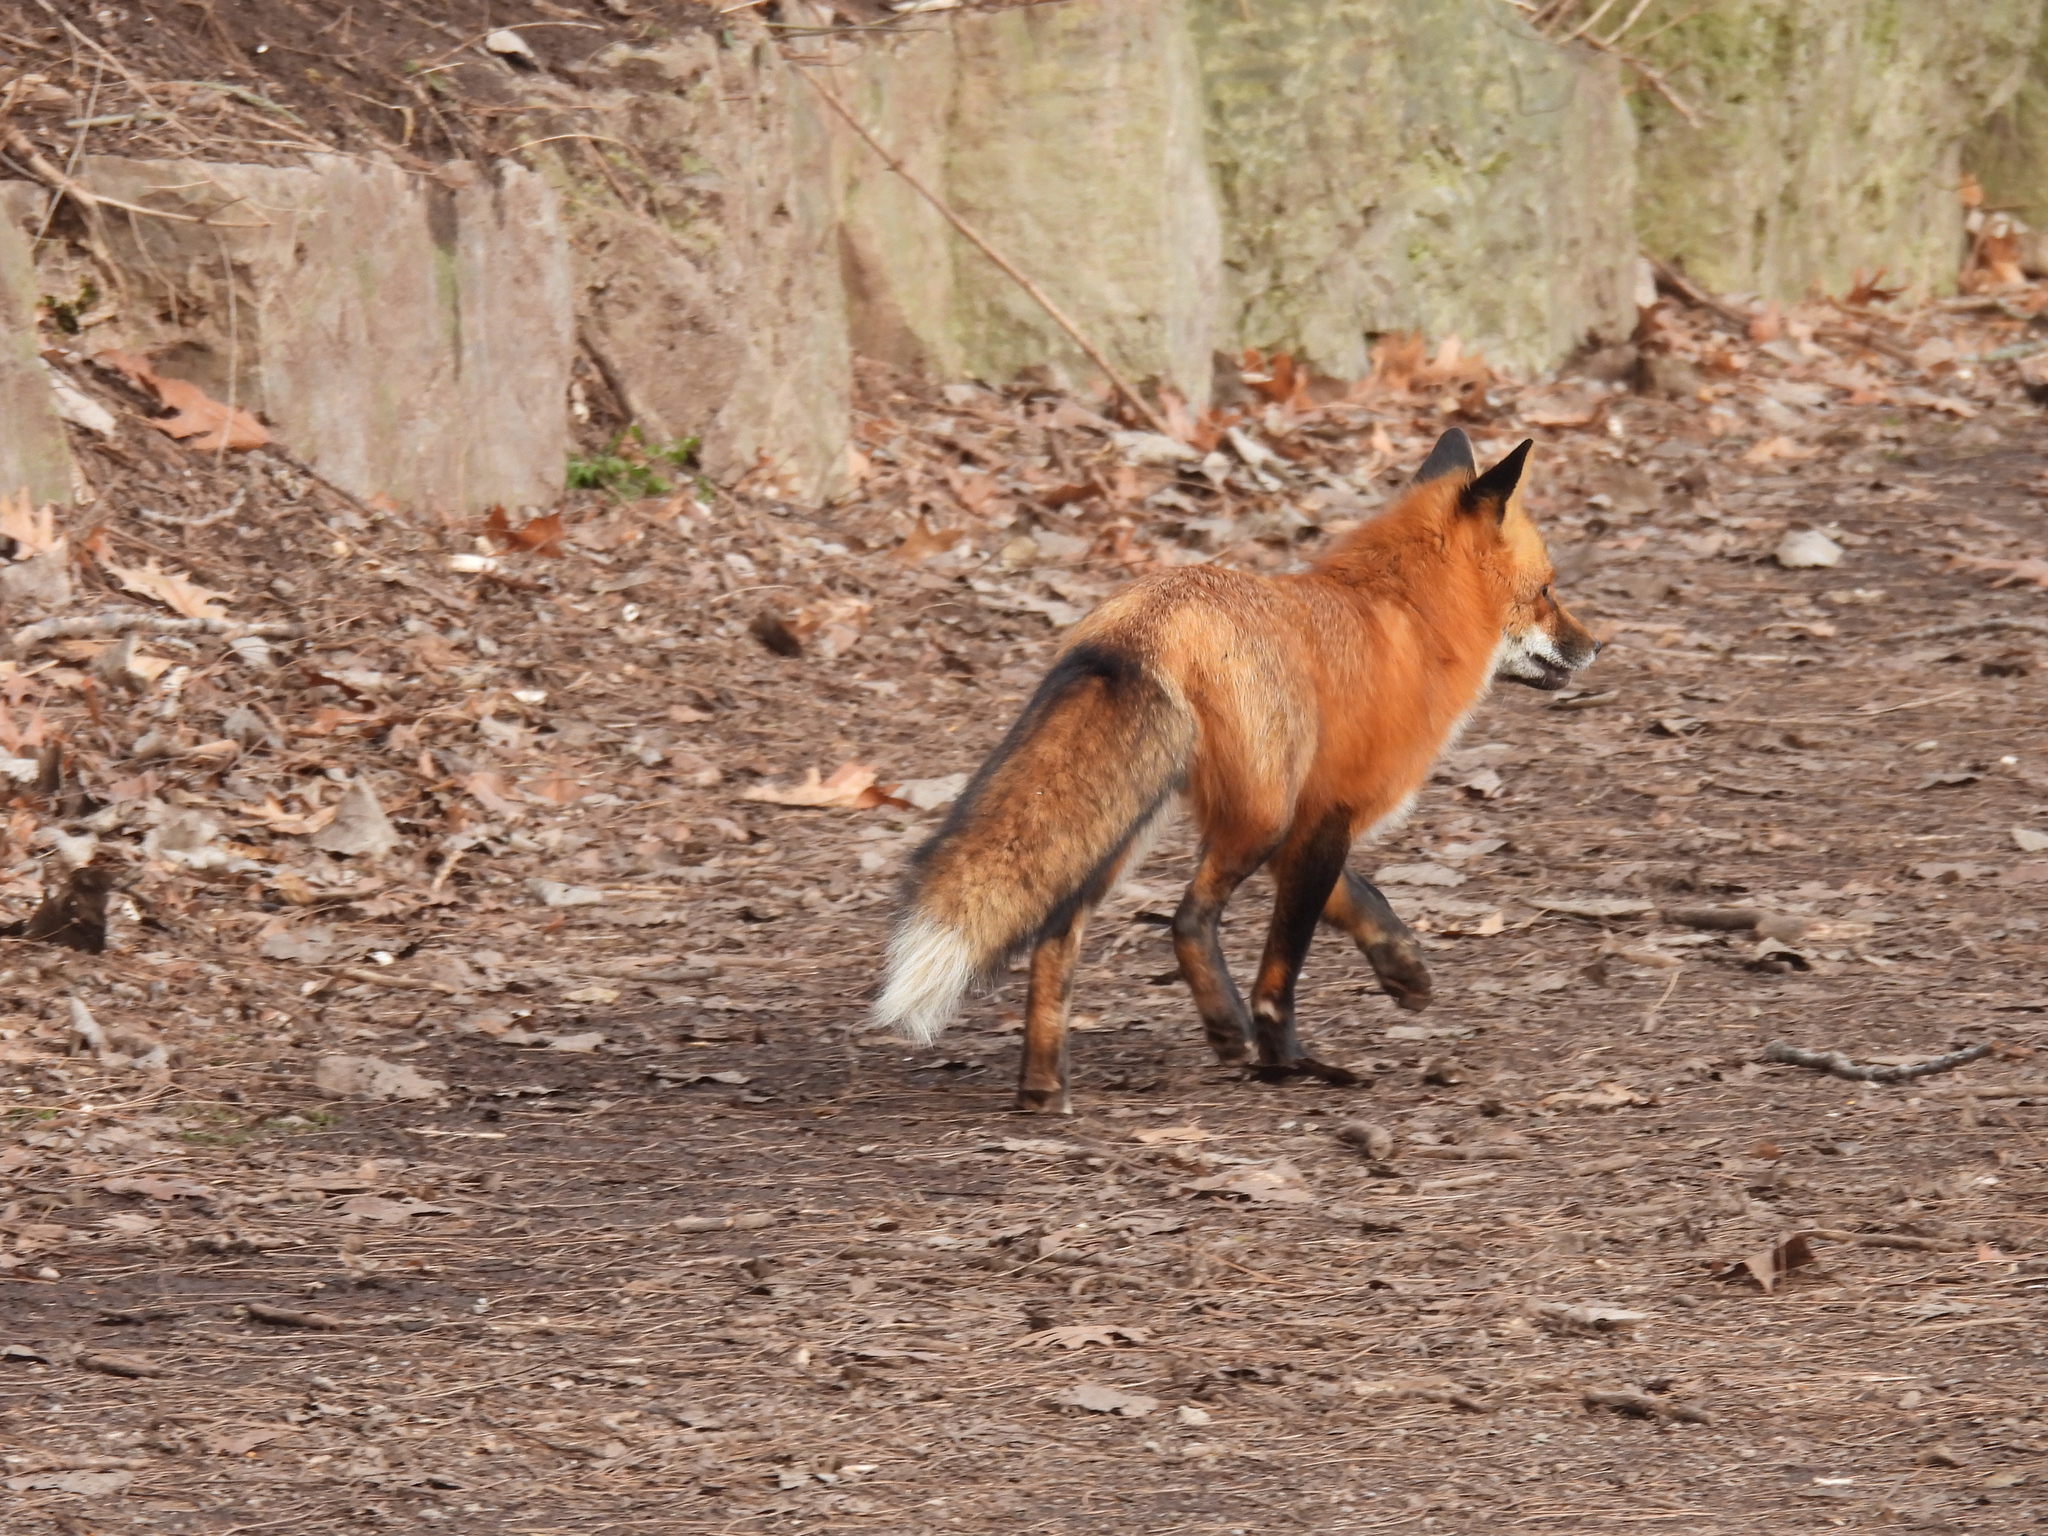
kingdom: Animalia
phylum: Chordata
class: Mammalia
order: Carnivora
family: Canidae
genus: Vulpes
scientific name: Vulpes vulpes
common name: Red fox
